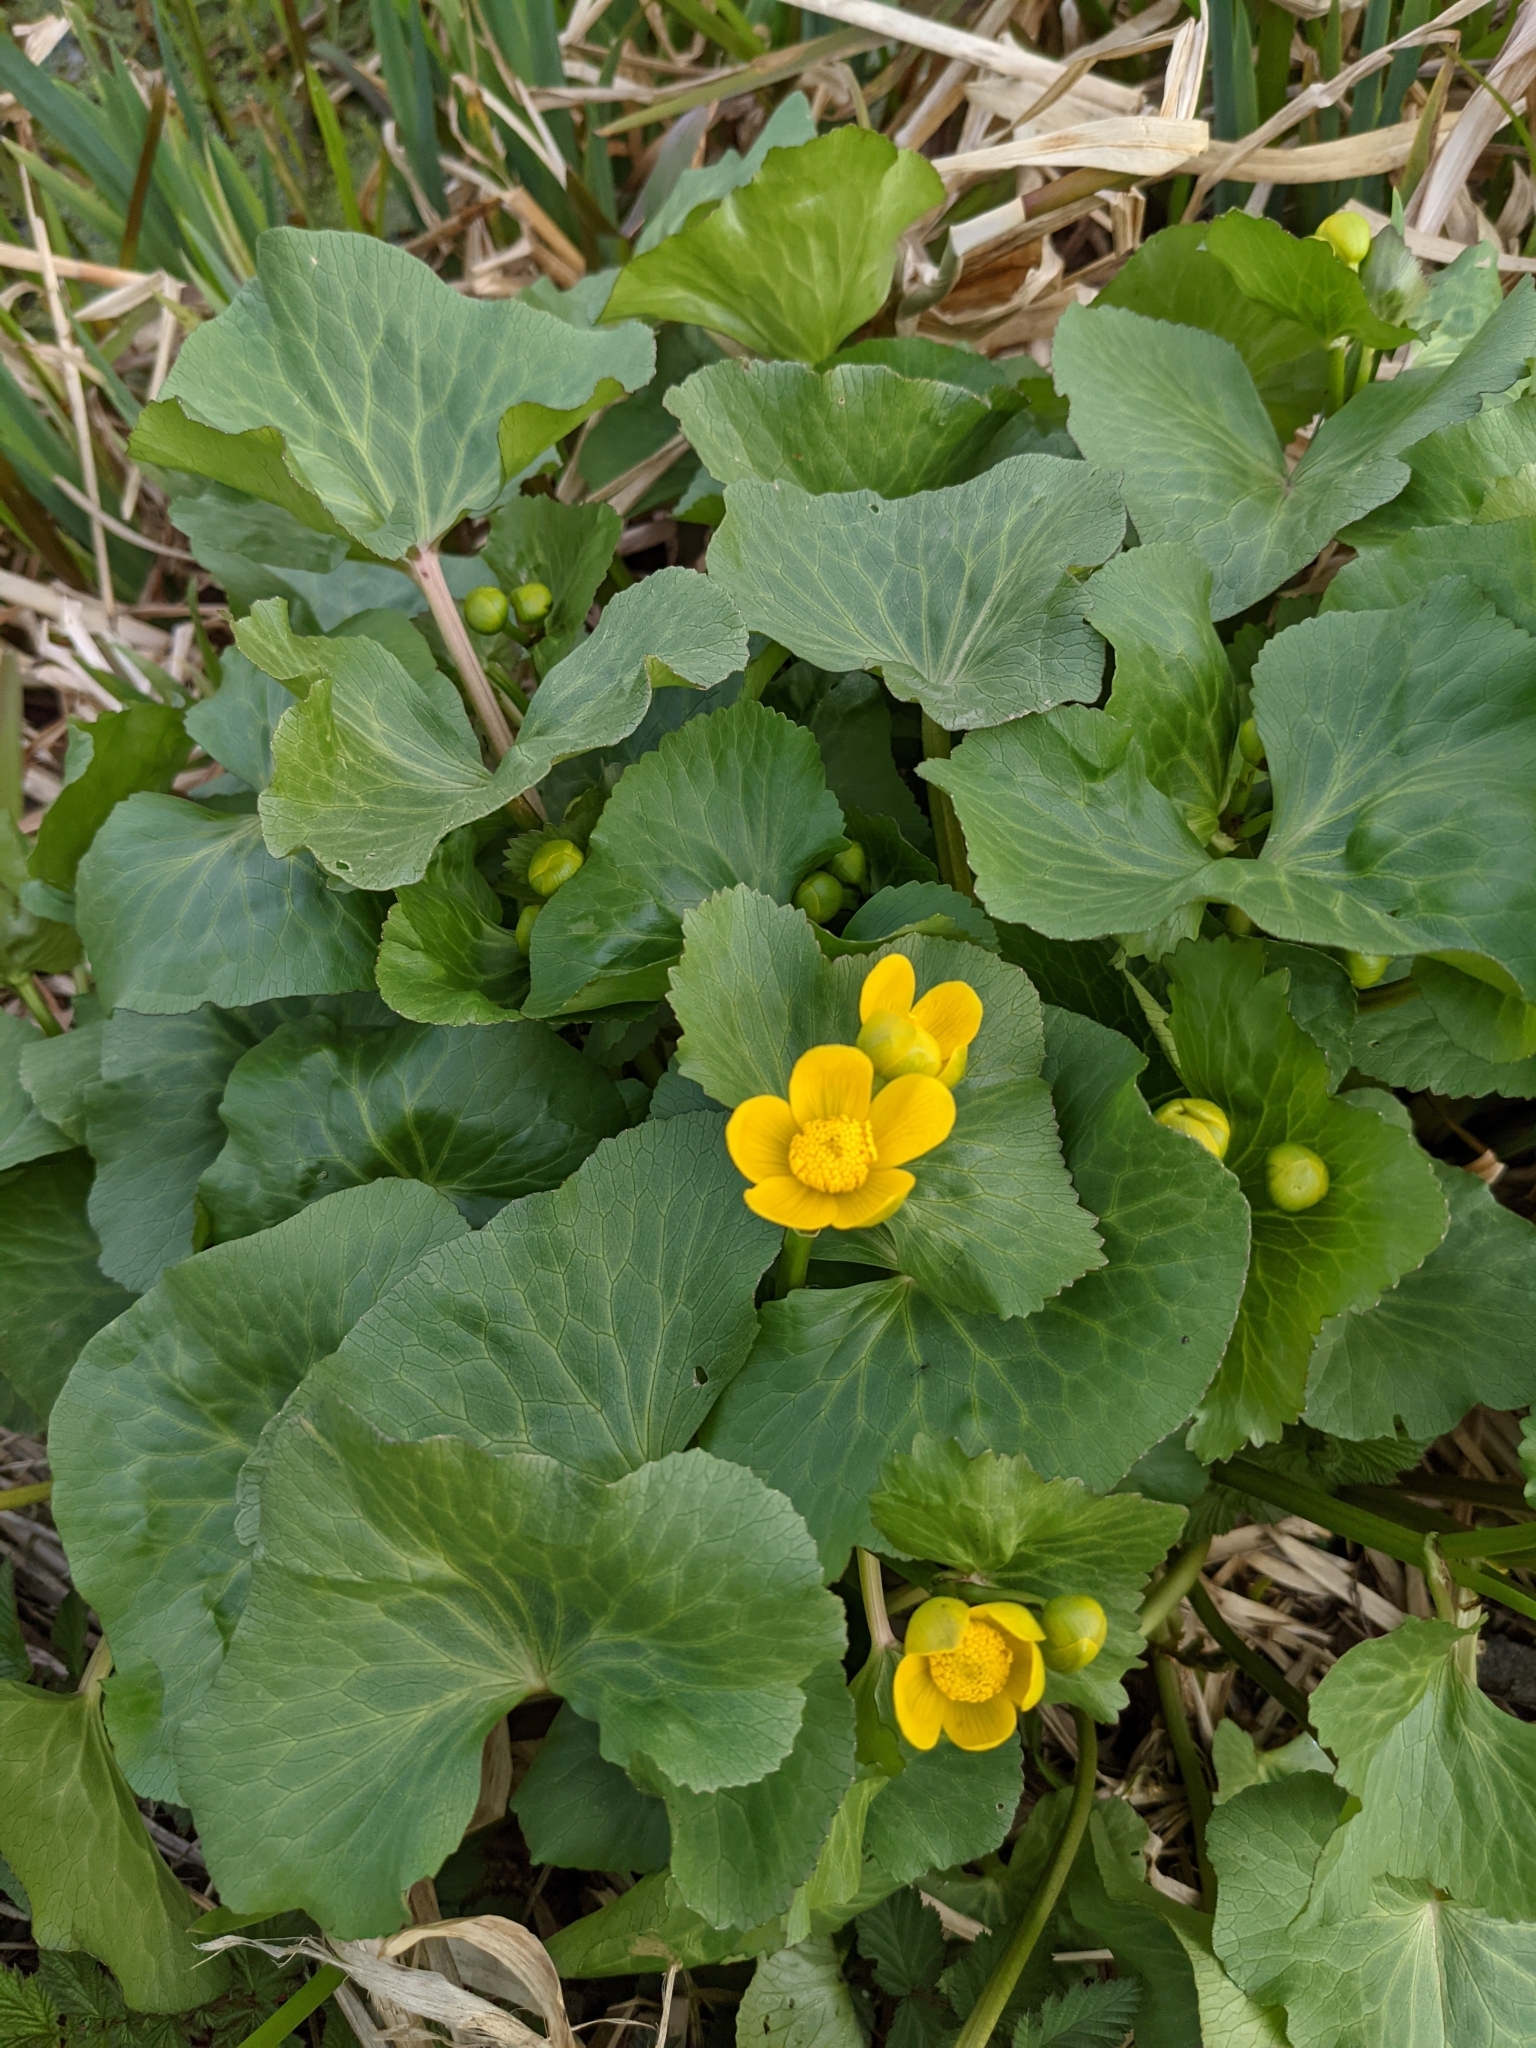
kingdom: Plantae
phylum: Tracheophyta
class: Magnoliopsida
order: Ranunculales
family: Ranunculaceae
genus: Caltha
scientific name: Caltha palustris
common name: Marsh marigold
